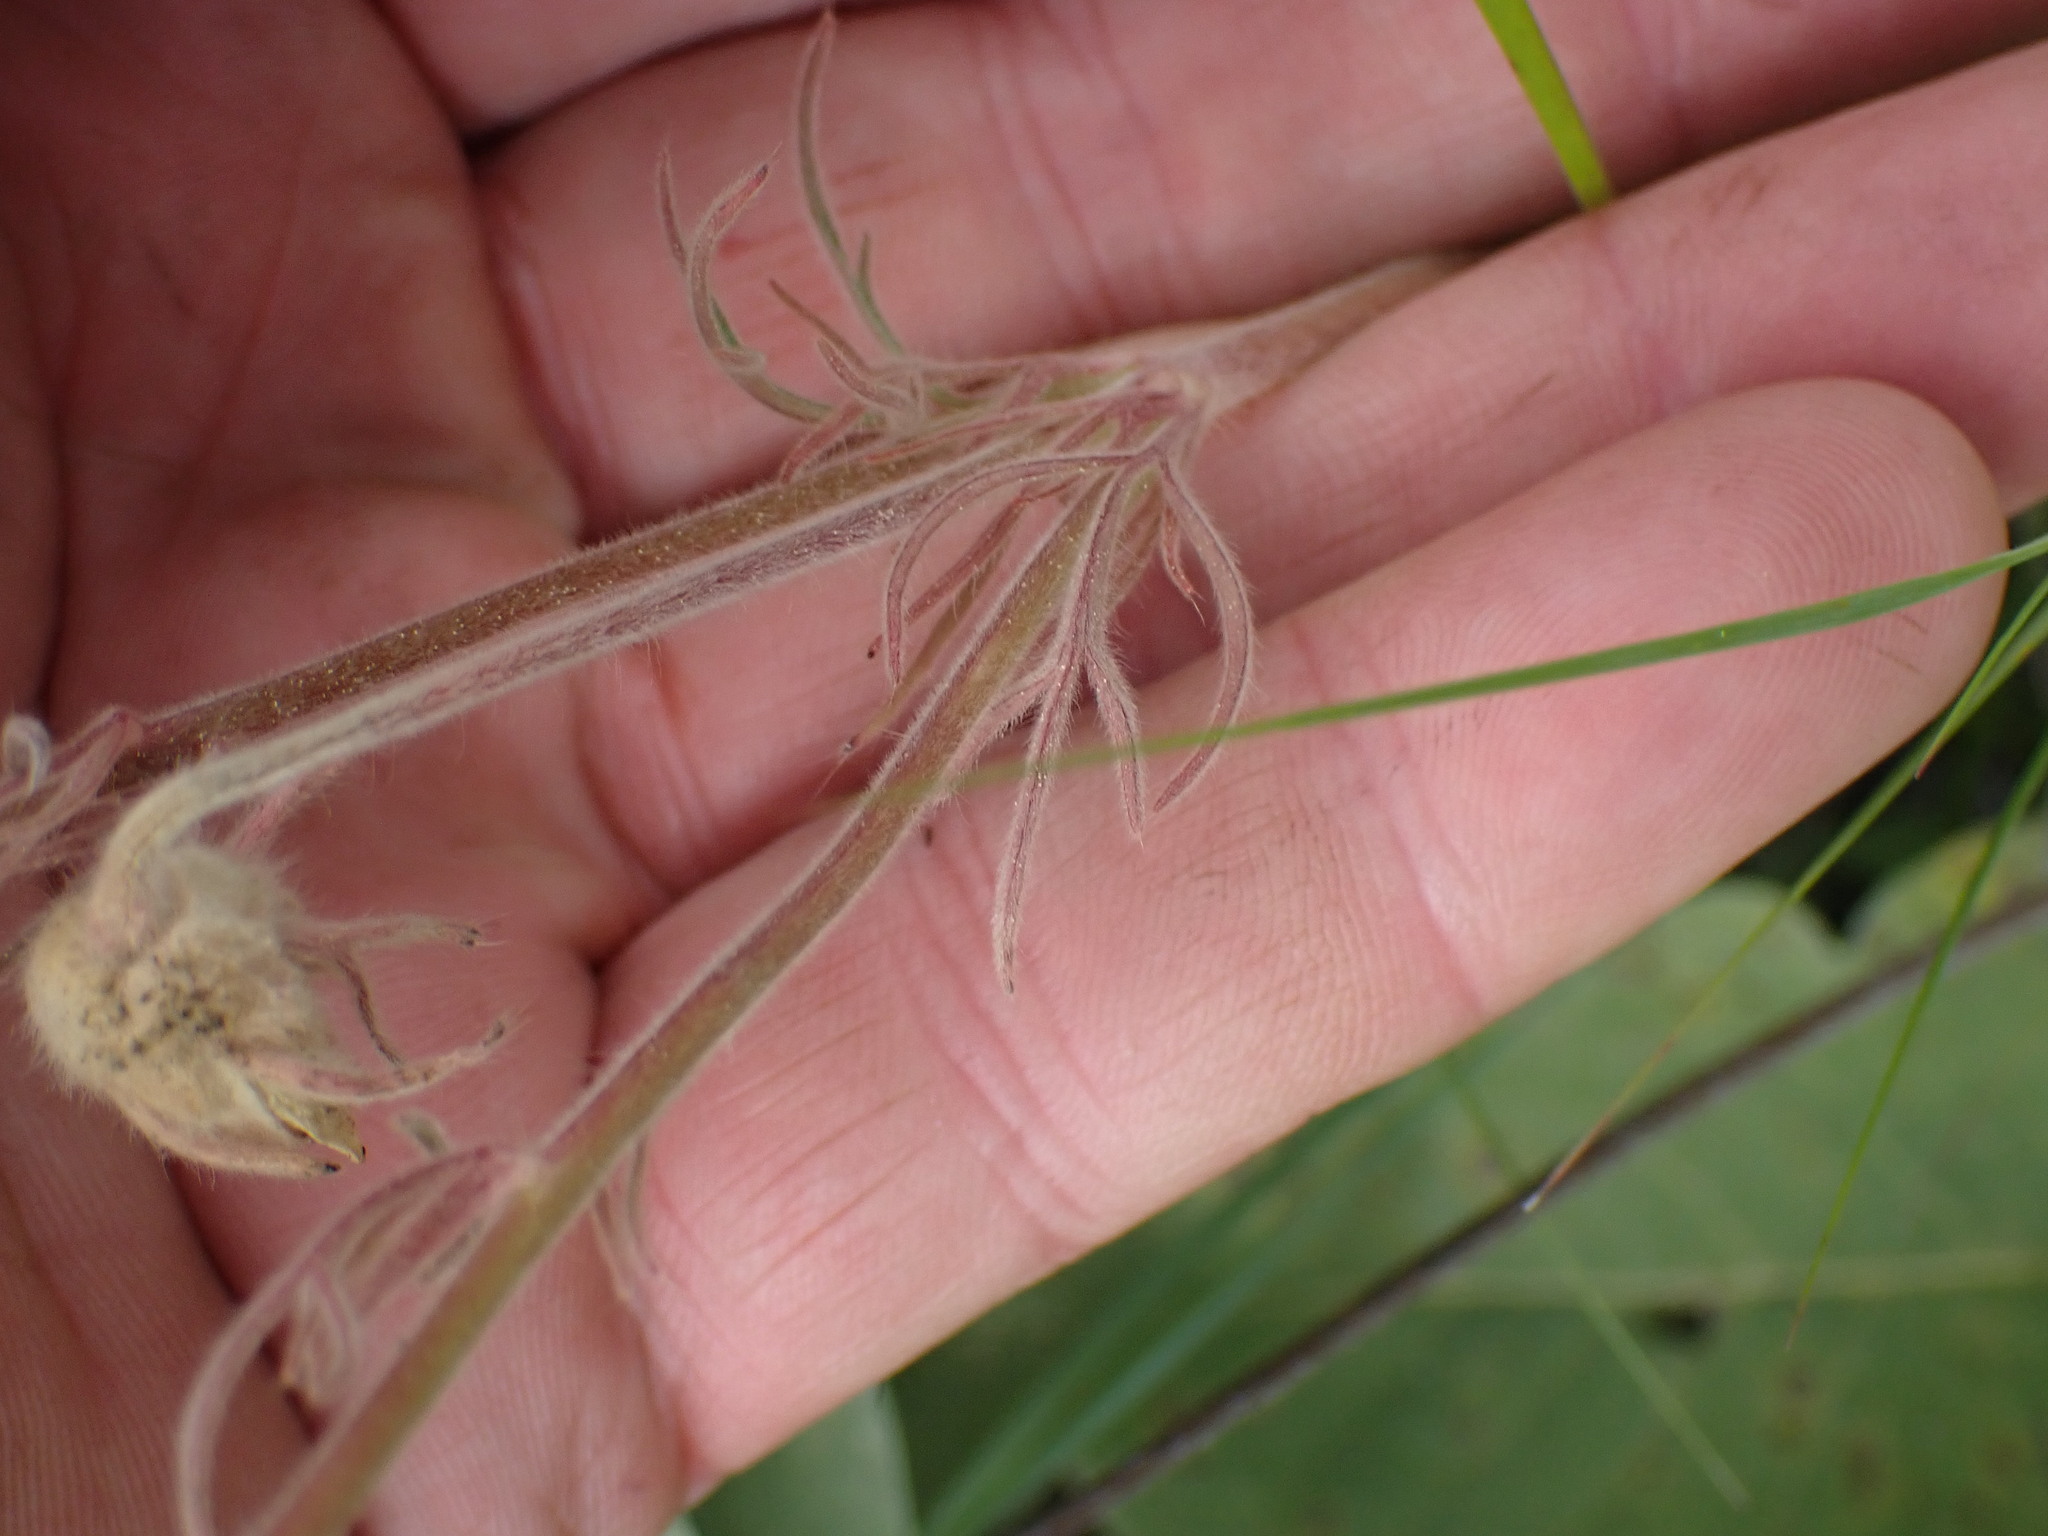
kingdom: Plantae
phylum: Tracheophyta
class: Magnoliopsida
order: Rosales
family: Rosaceae
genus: Geum
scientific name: Geum triflorum
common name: Old man's whiskers
